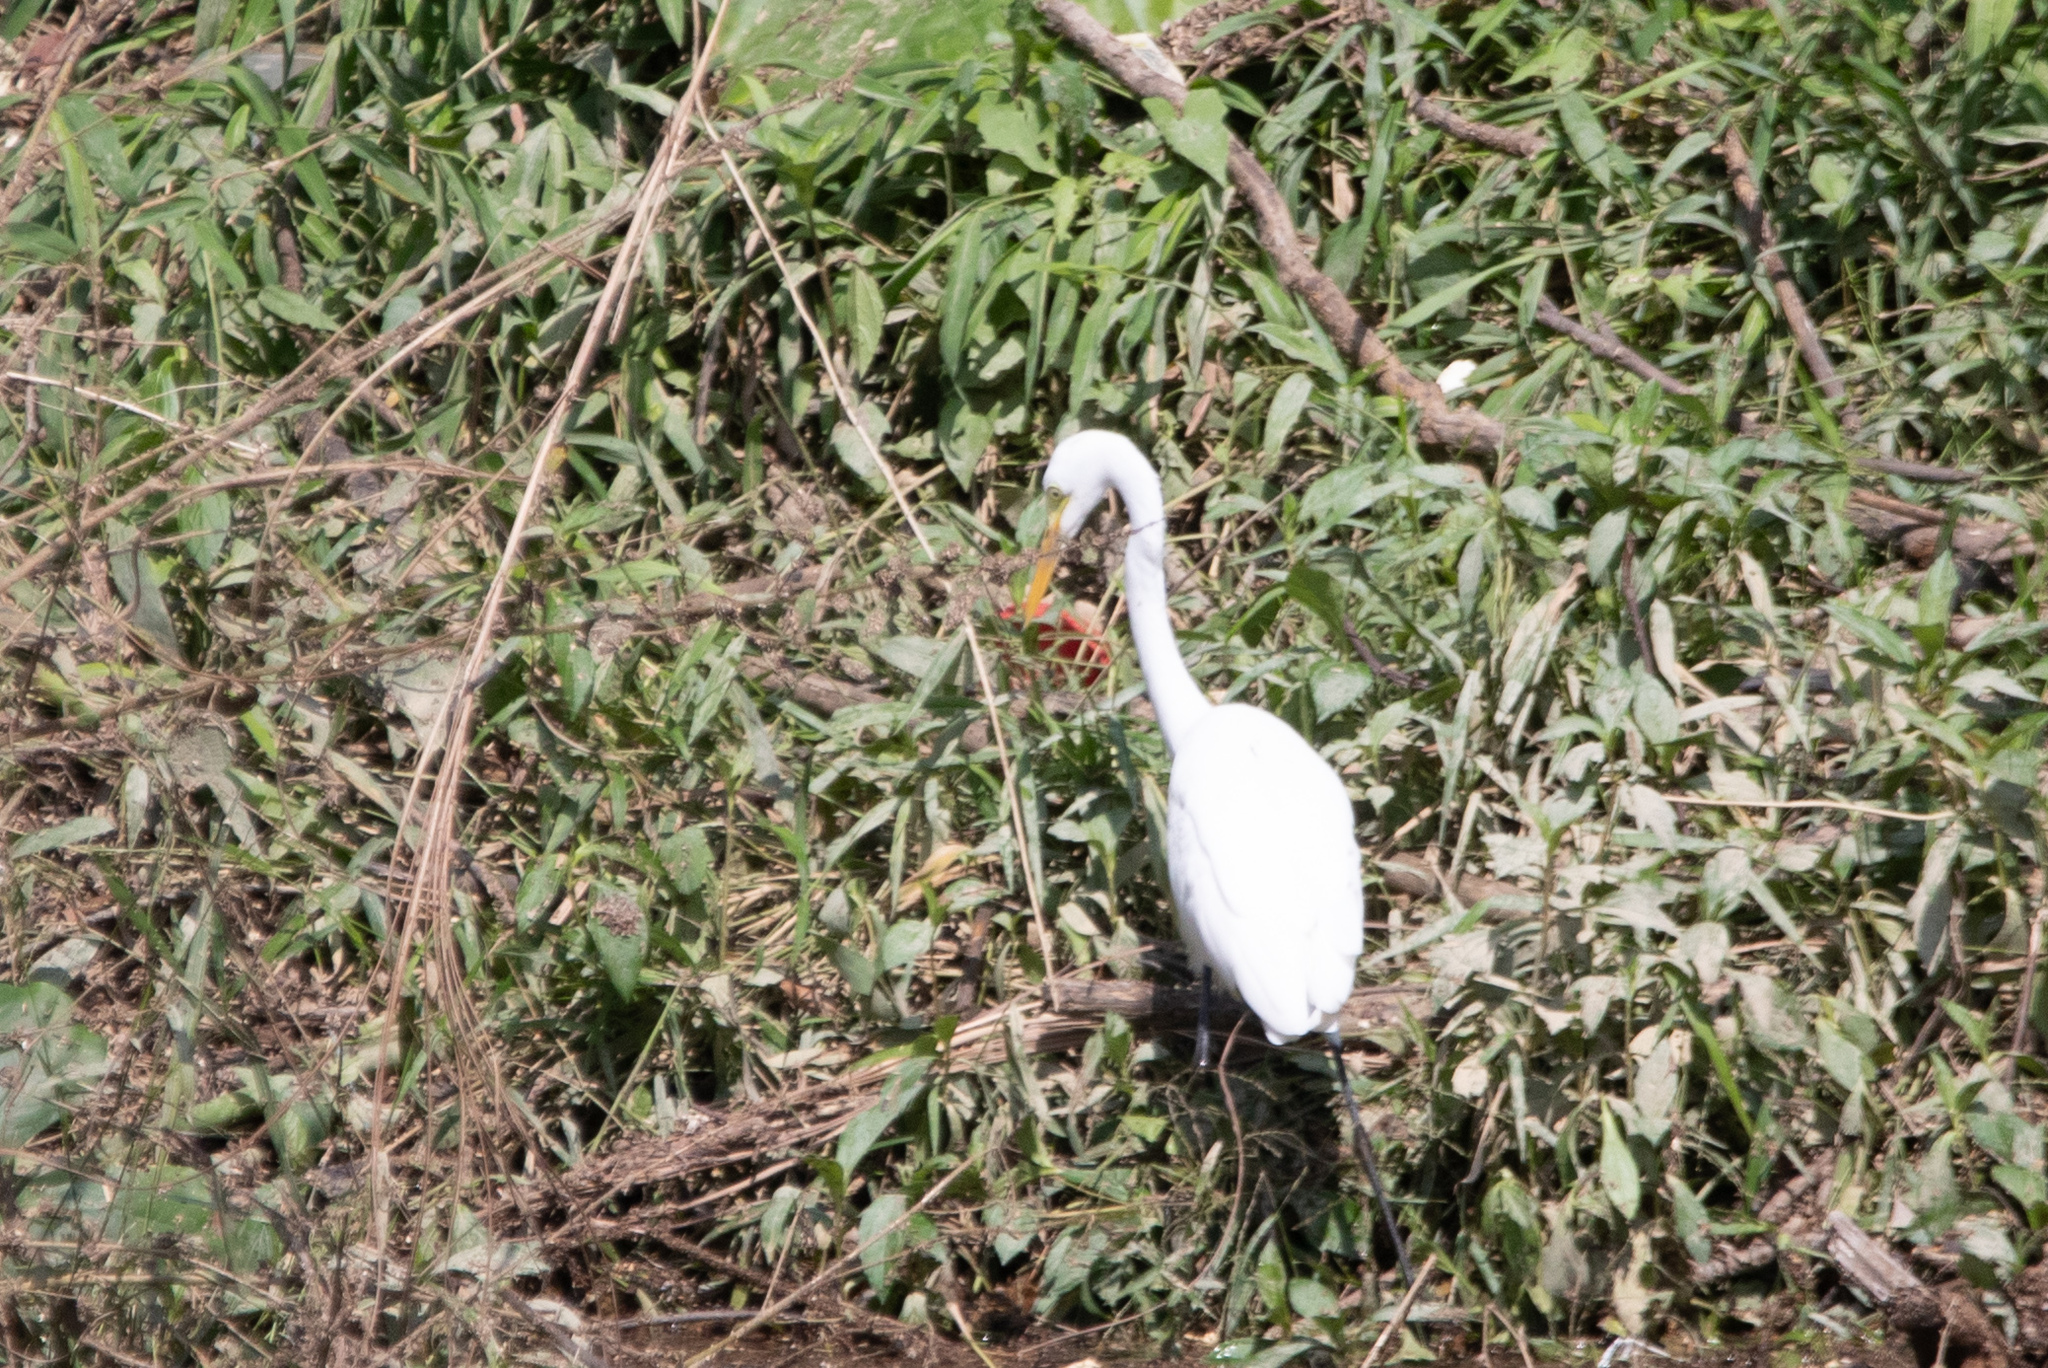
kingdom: Animalia
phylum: Chordata
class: Aves
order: Pelecaniformes
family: Ardeidae
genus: Ardea
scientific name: Ardea alba
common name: Great egret
